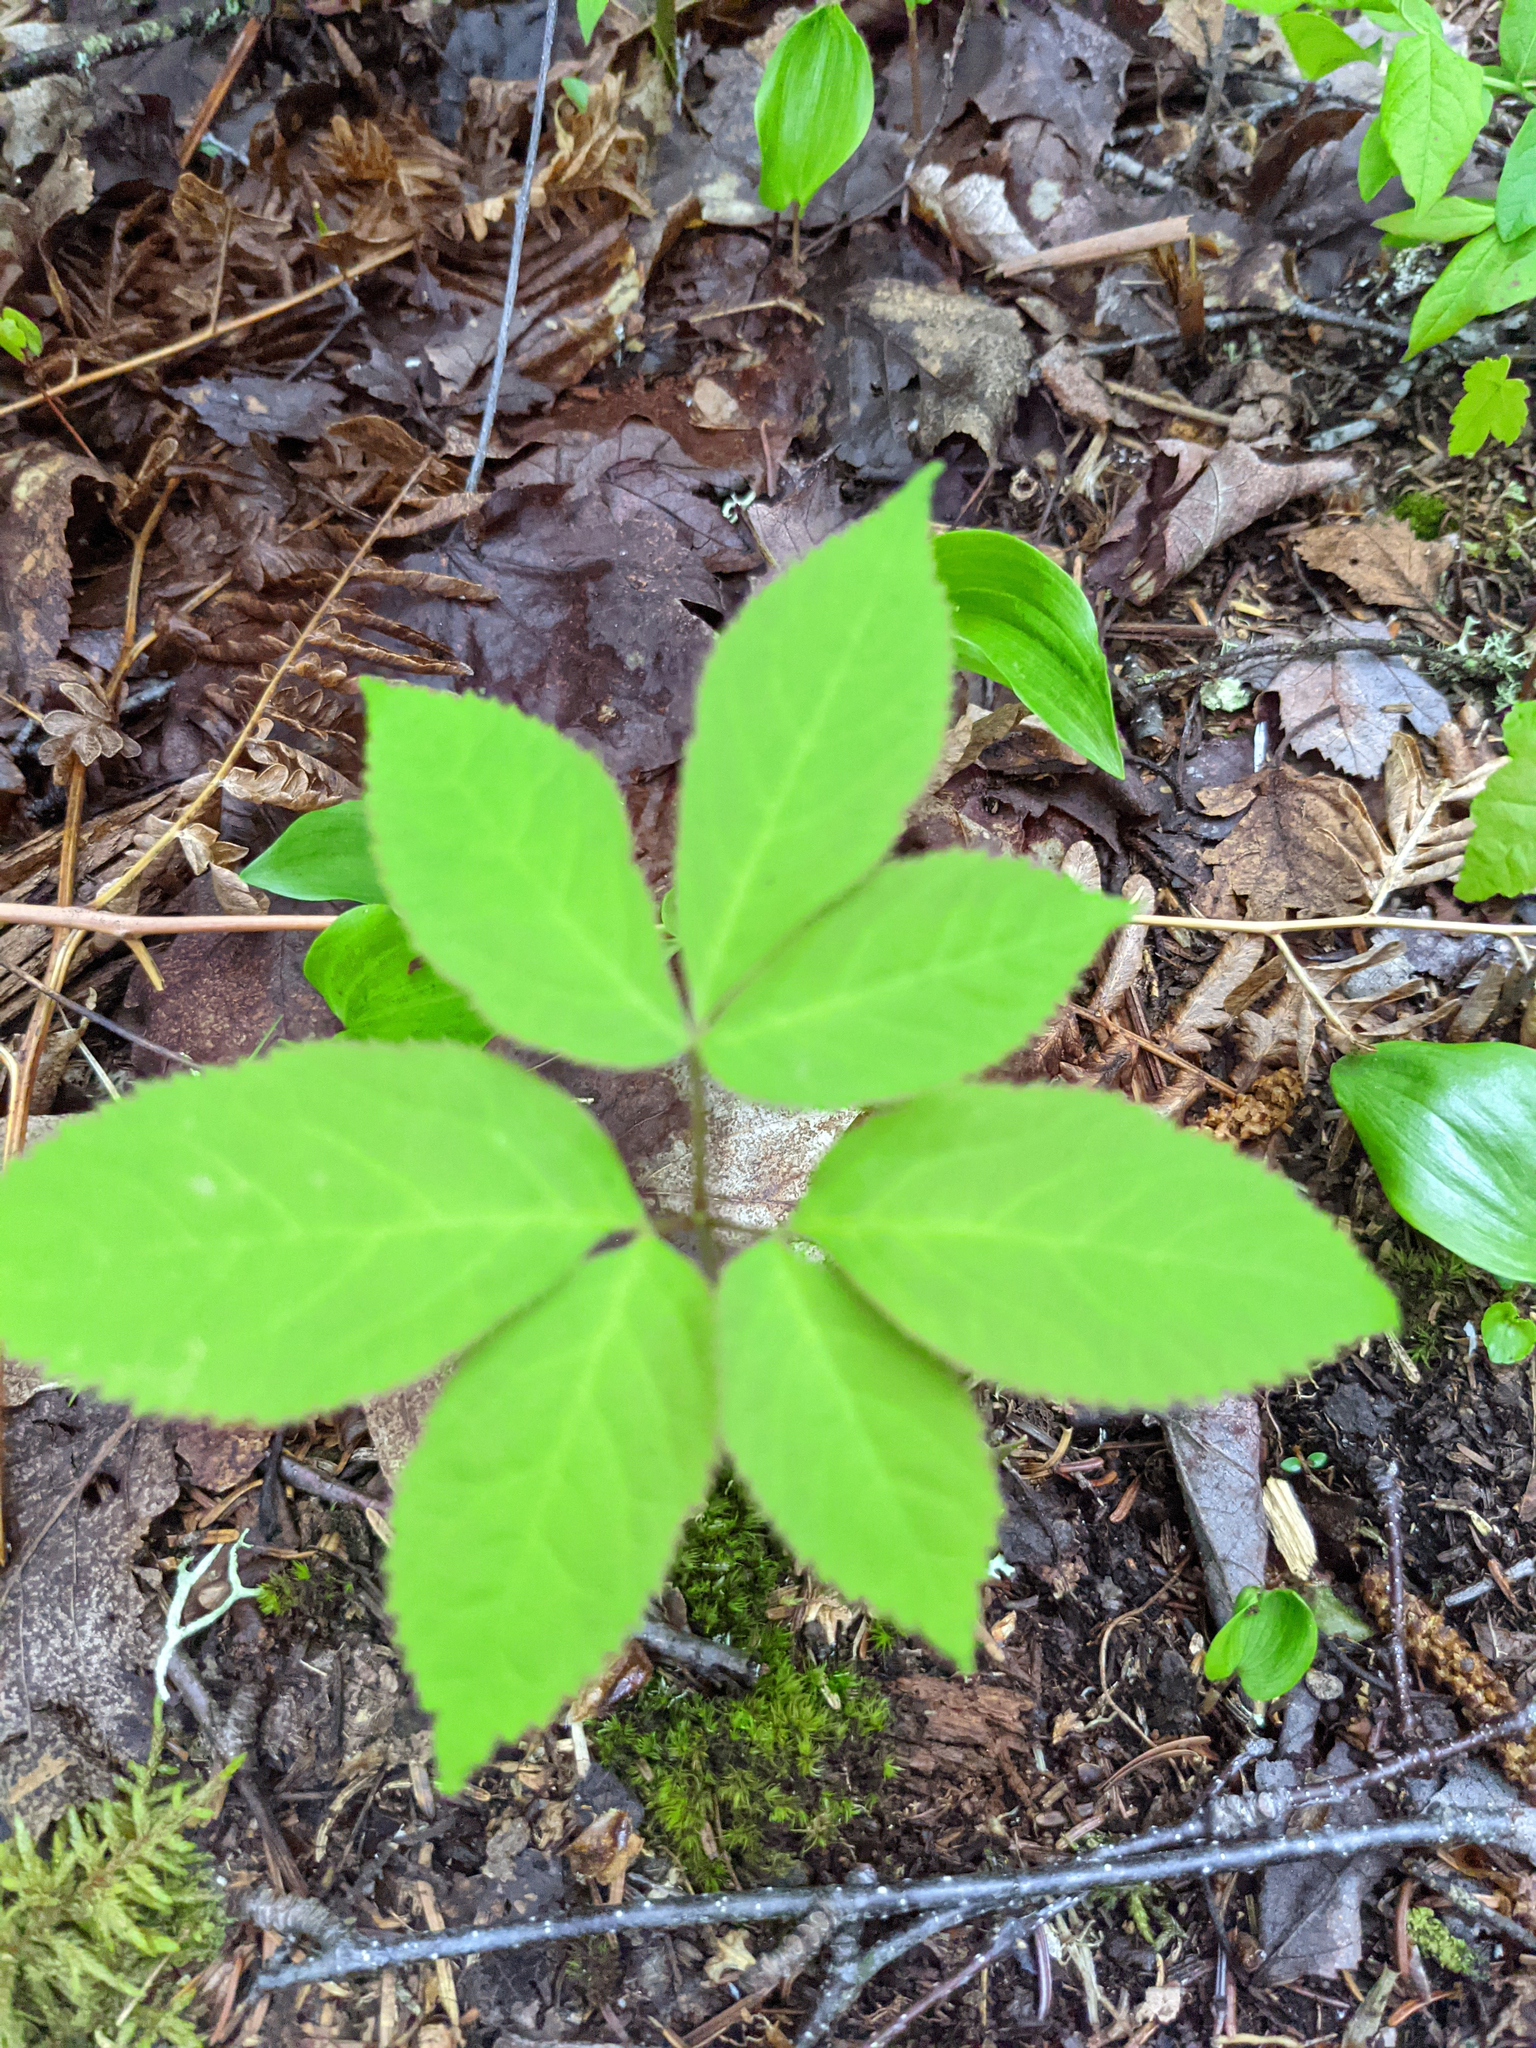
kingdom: Plantae
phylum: Tracheophyta
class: Magnoliopsida
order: Apiales
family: Araliaceae
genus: Aralia
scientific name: Aralia nudicaulis
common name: Wild sarsaparilla
